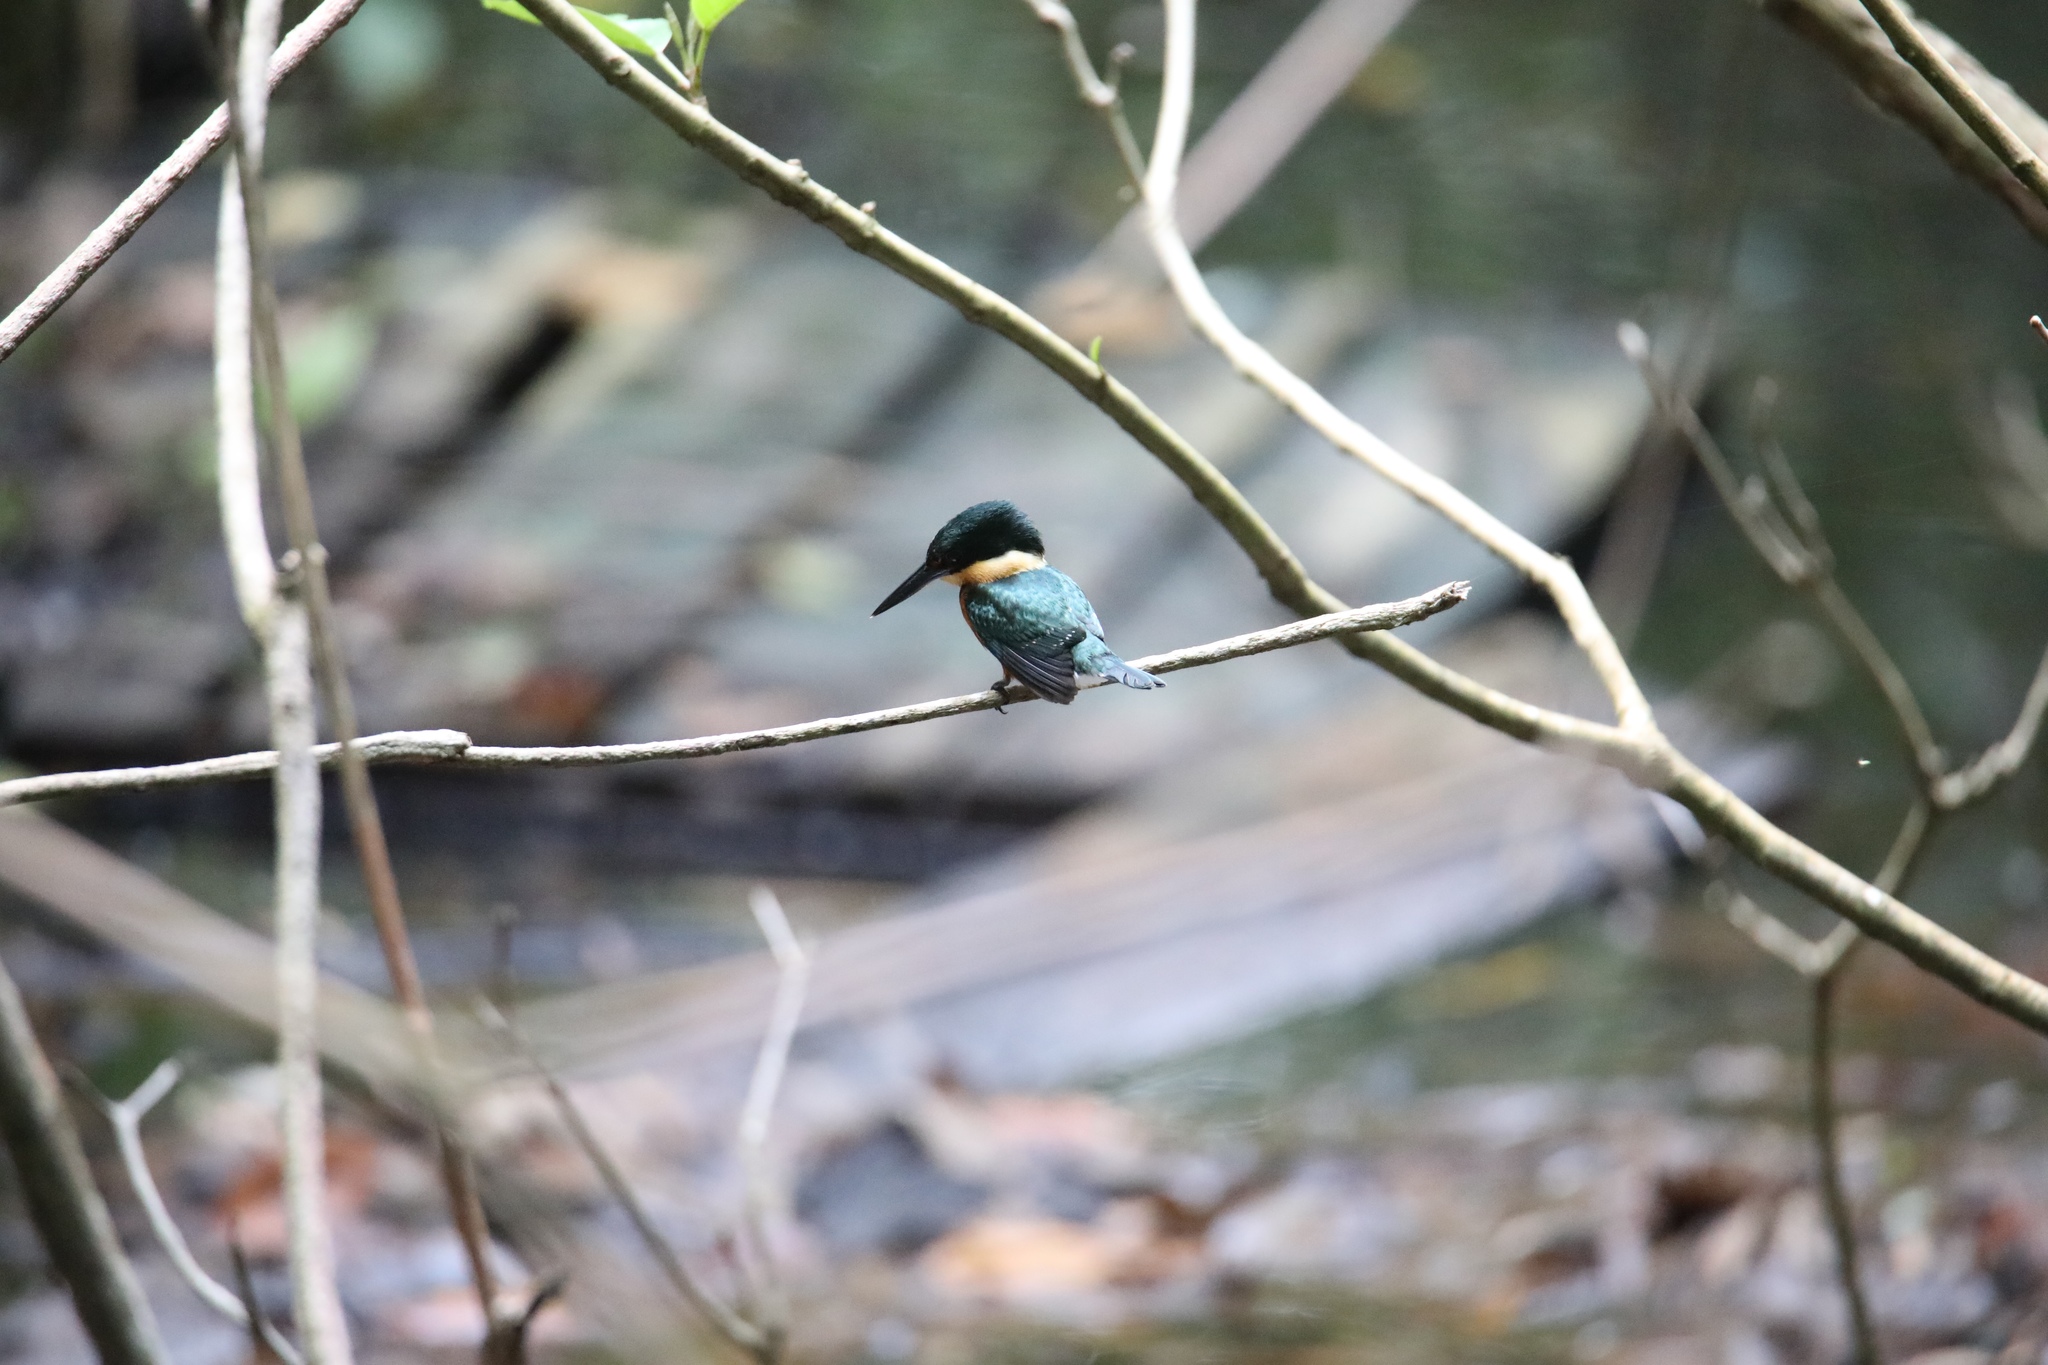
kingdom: Animalia
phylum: Chordata
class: Aves
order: Coraciiformes
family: Alcedinidae
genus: Chloroceryle
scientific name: Chloroceryle aenea
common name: American pygmy kingfisher
